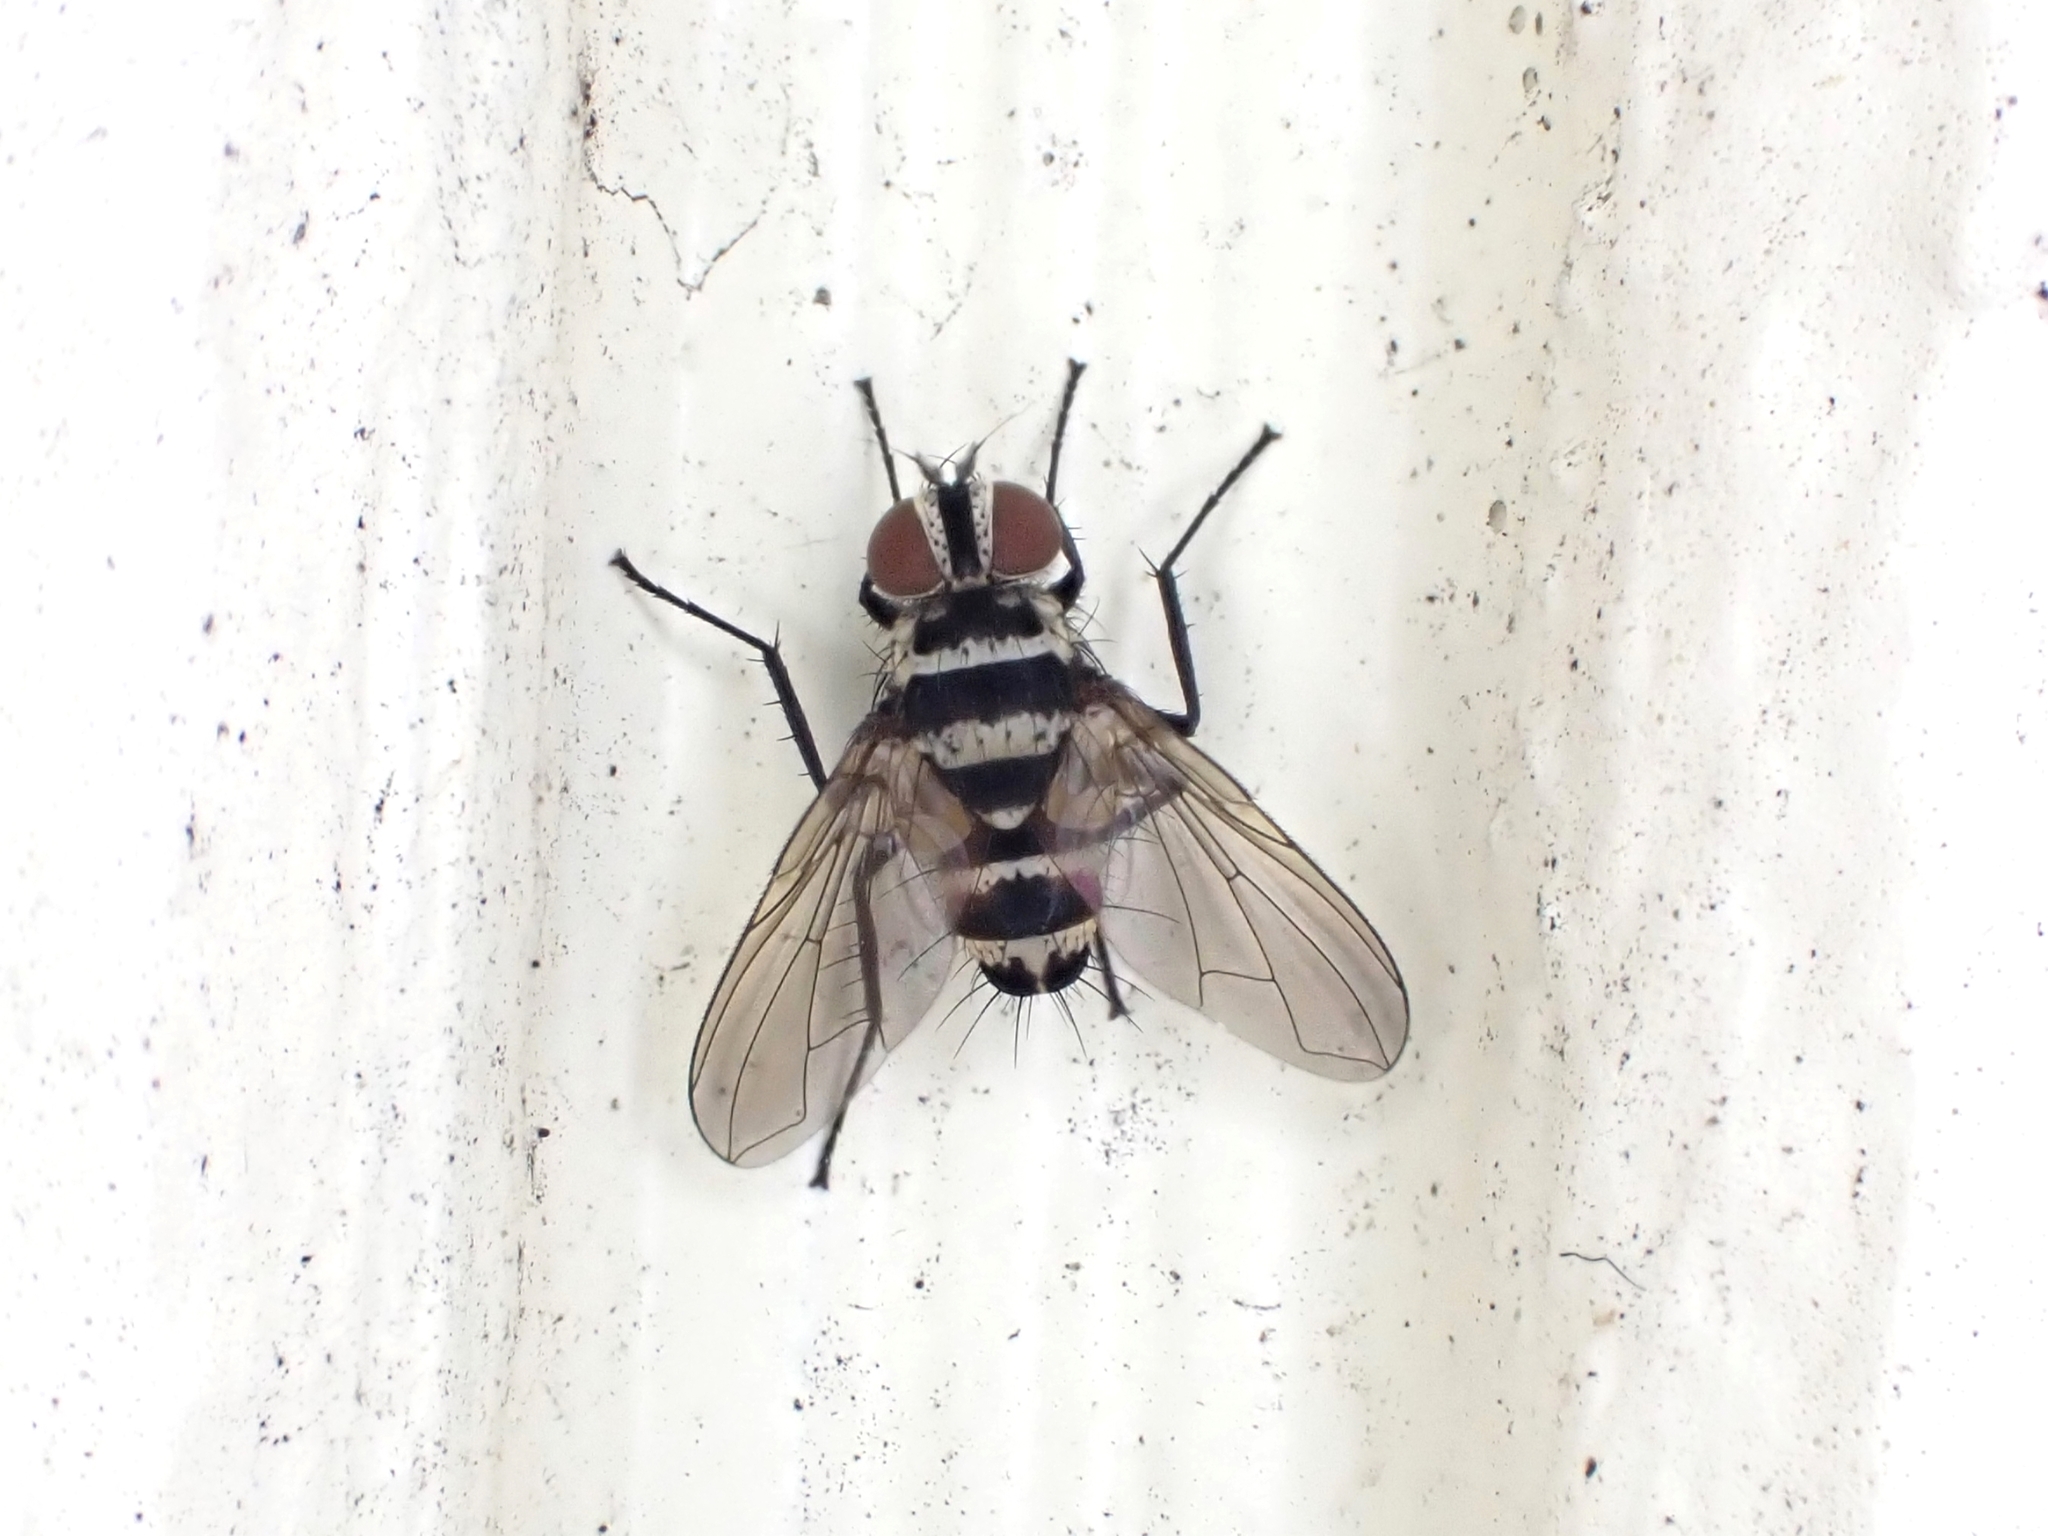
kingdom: Animalia
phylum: Arthropoda
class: Insecta
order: Diptera
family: Tachinidae
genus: Trigonospila
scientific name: Trigonospila brevifacies
